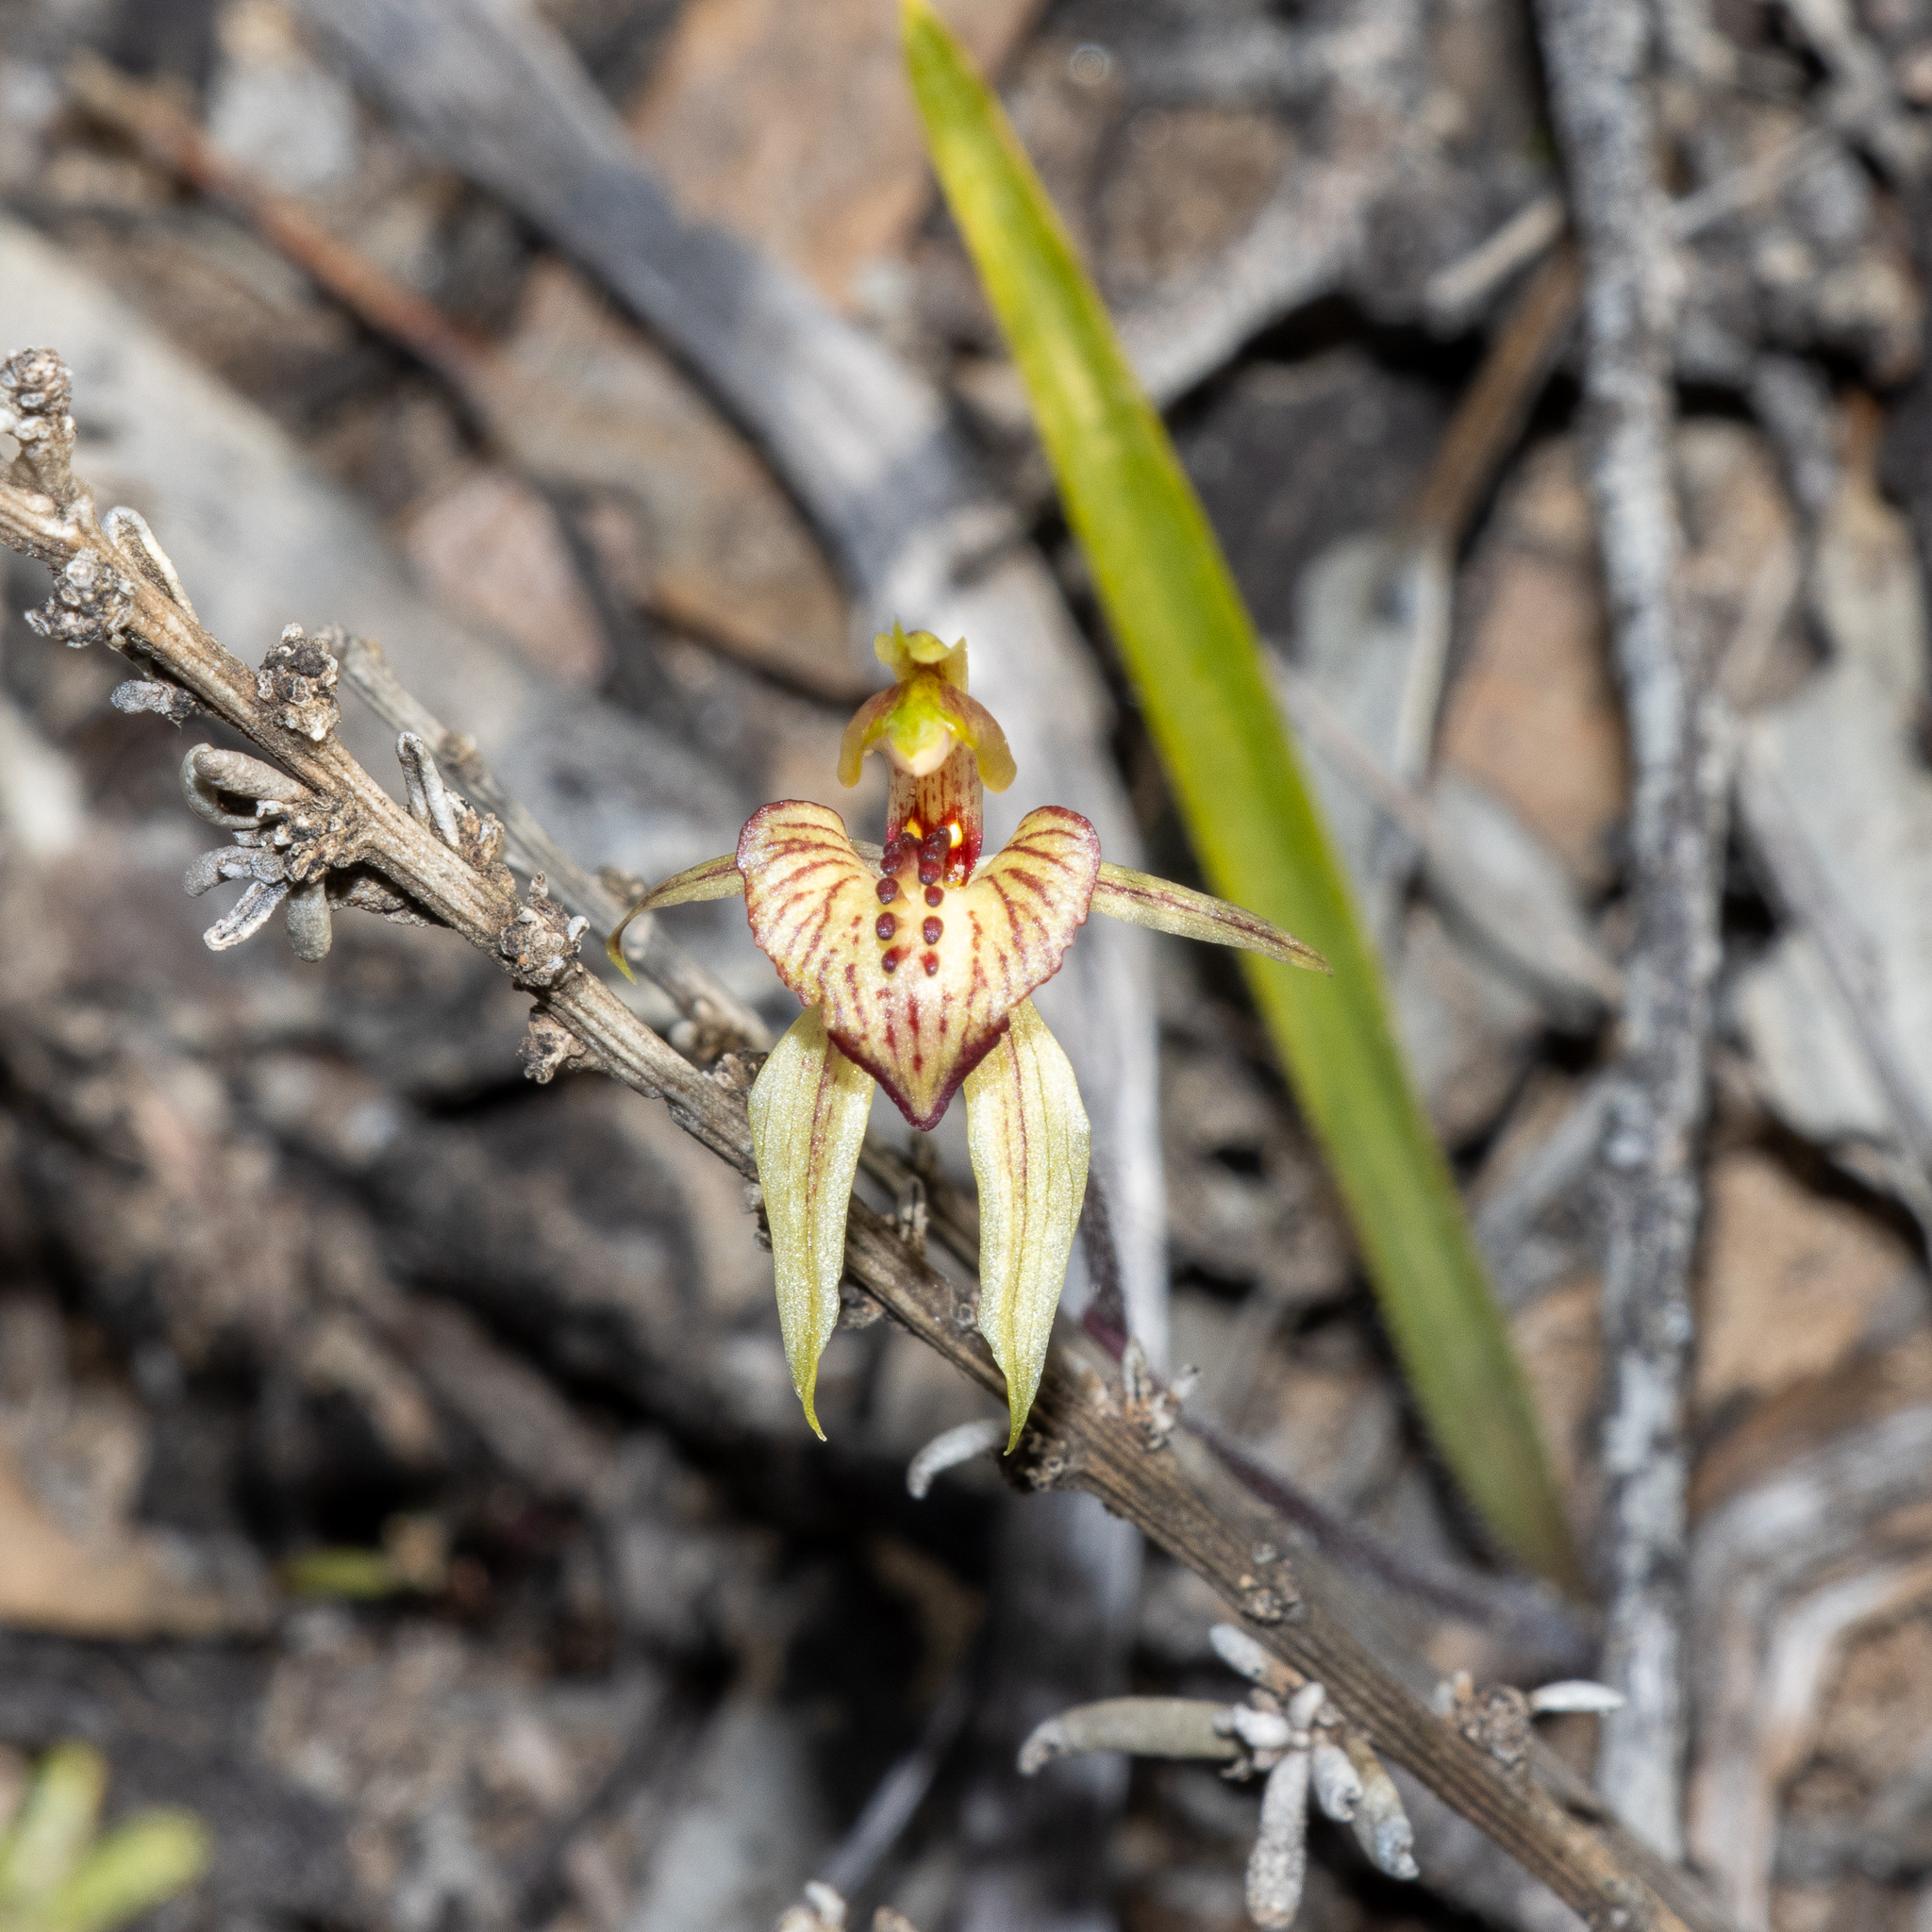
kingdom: Plantae
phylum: Tracheophyta
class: Liliopsida
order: Asparagales
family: Orchidaceae
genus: Caladenia
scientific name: Caladenia cardiochila
